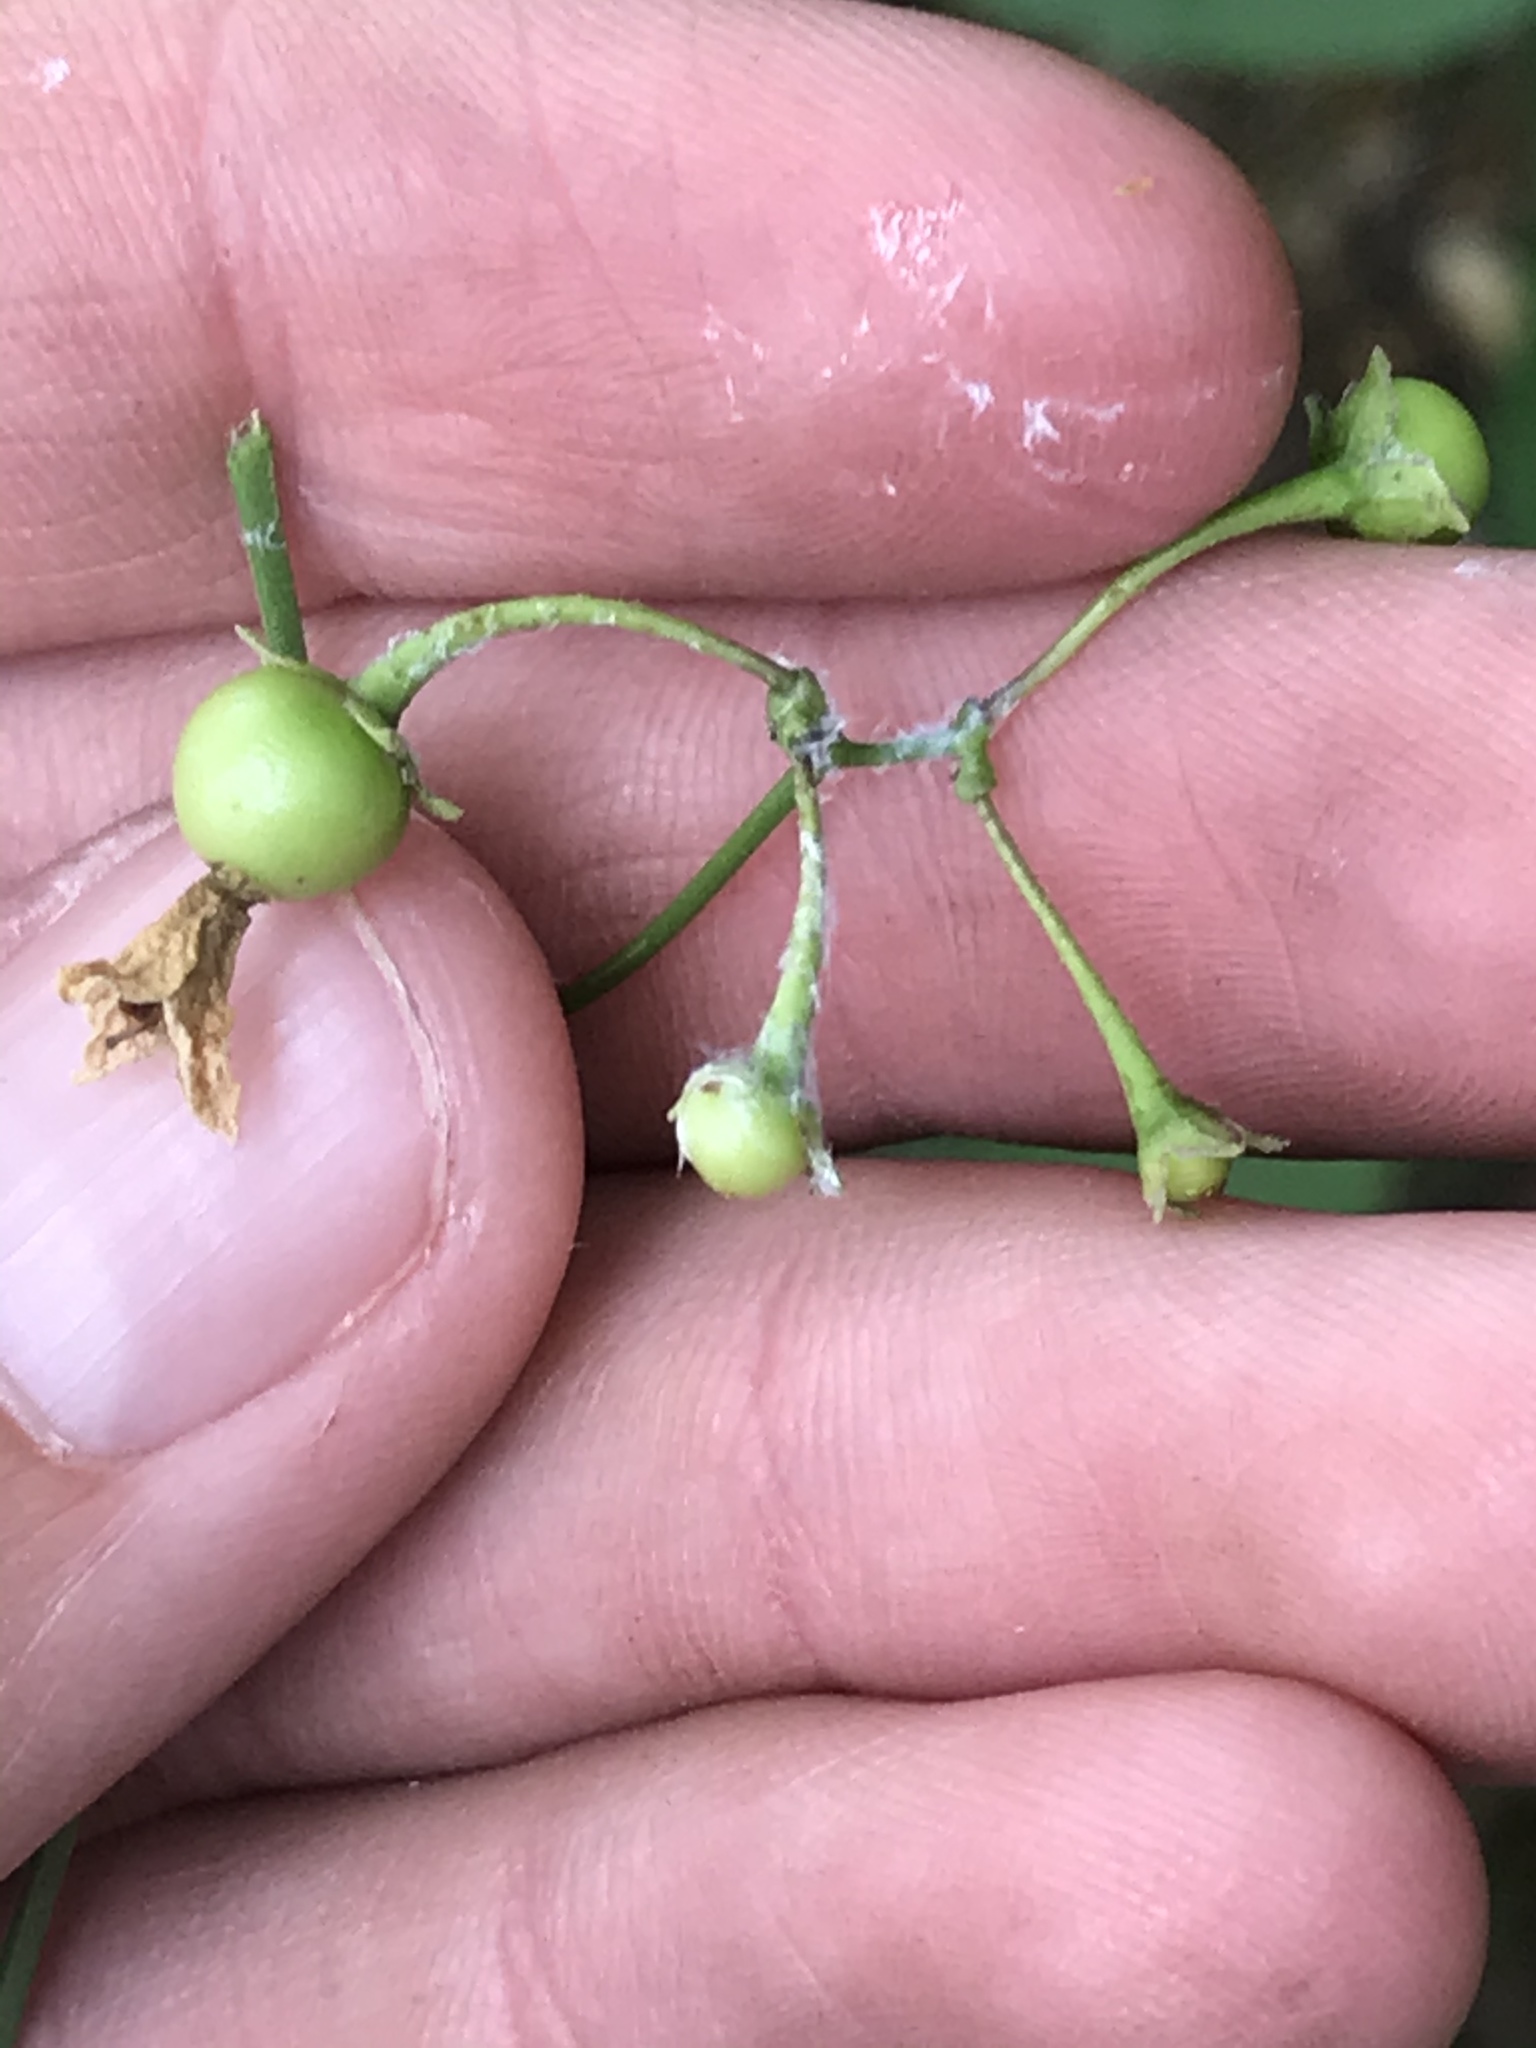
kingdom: Plantae
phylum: Tracheophyta
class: Magnoliopsida
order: Solanales
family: Solanaceae
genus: Solanum
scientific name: Solanum triquetrum
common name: Texas nightshade
